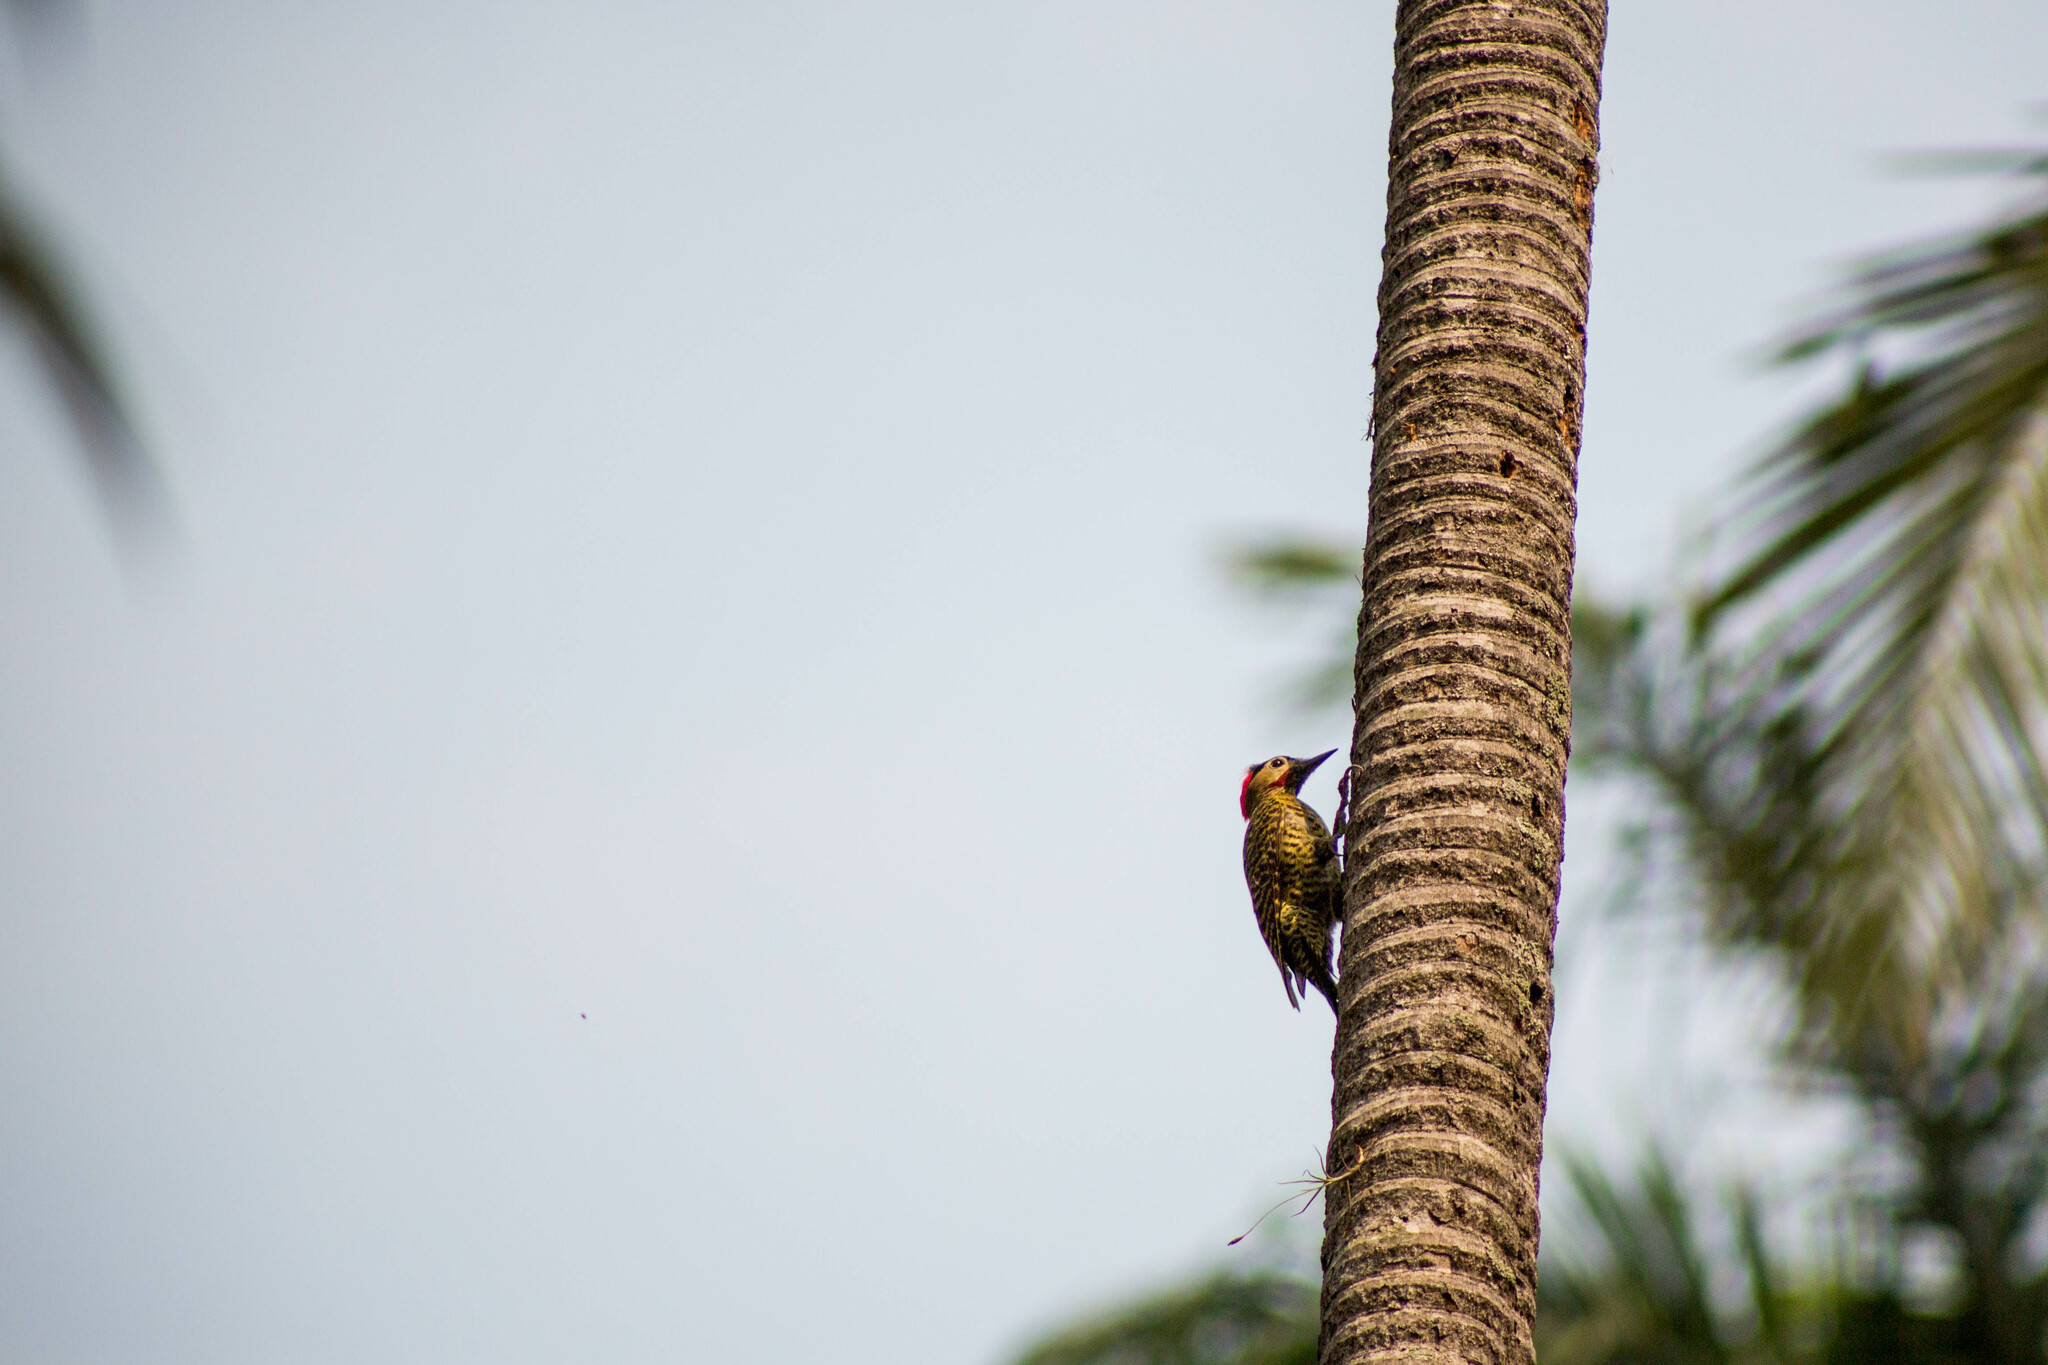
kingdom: Animalia
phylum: Chordata
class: Aves
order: Piciformes
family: Picidae
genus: Colaptes
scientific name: Colaptes melanochloros
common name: Green-barred woodpecker
